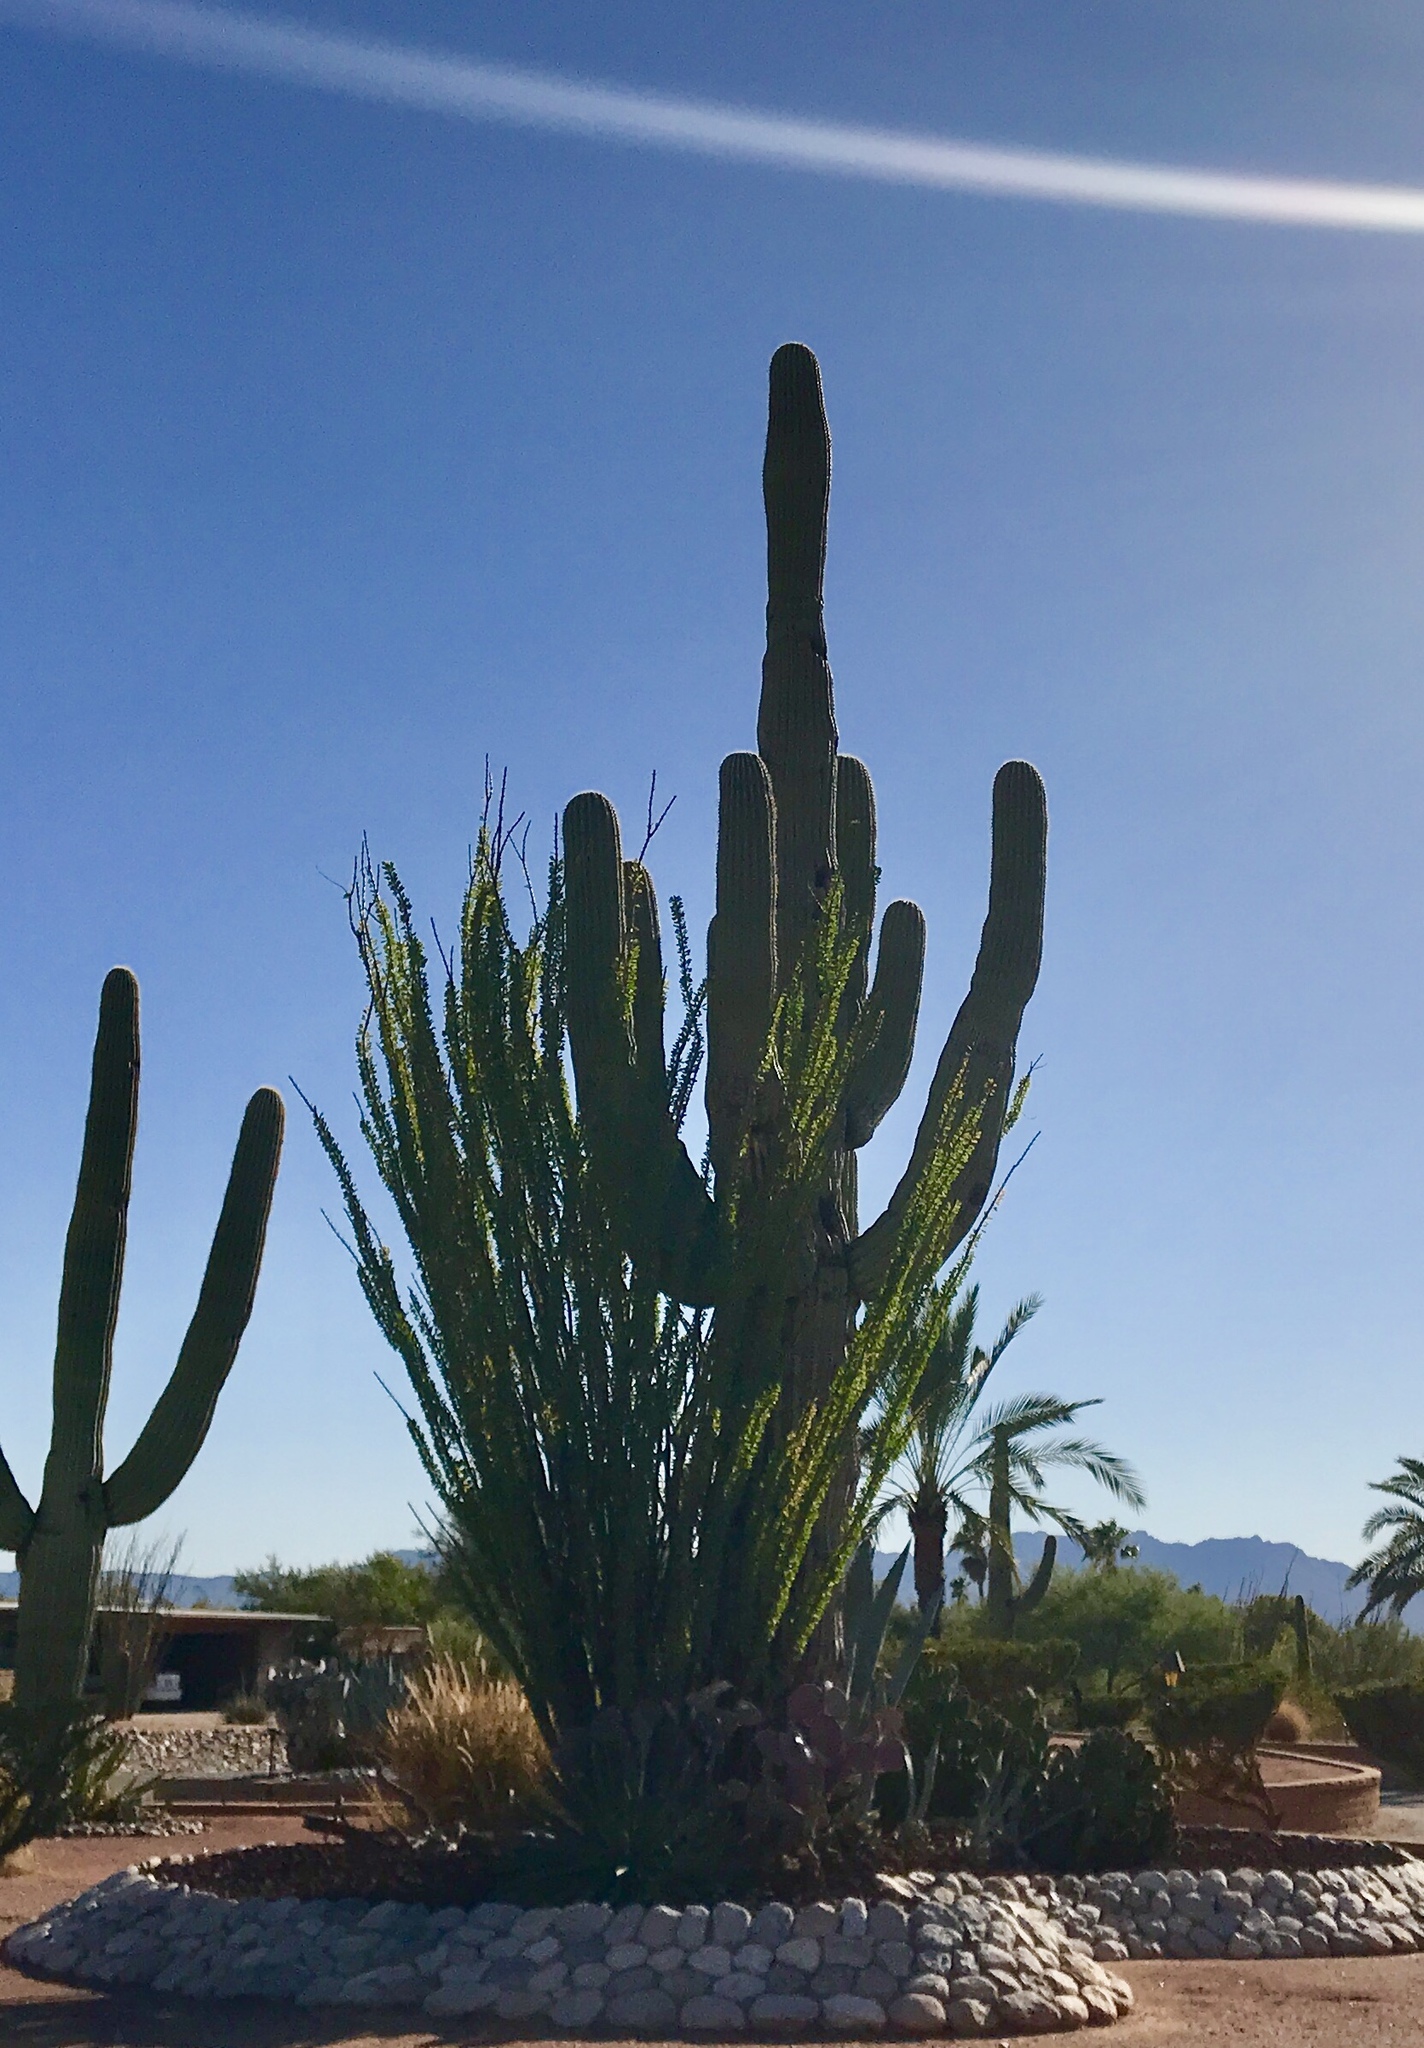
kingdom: Plantae
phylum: Tracheophyta
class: Magnoliopsida
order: Caryophyllales
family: Cactaceae
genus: Carnegiea
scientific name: Carnegiea gigantea
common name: Saguaro
